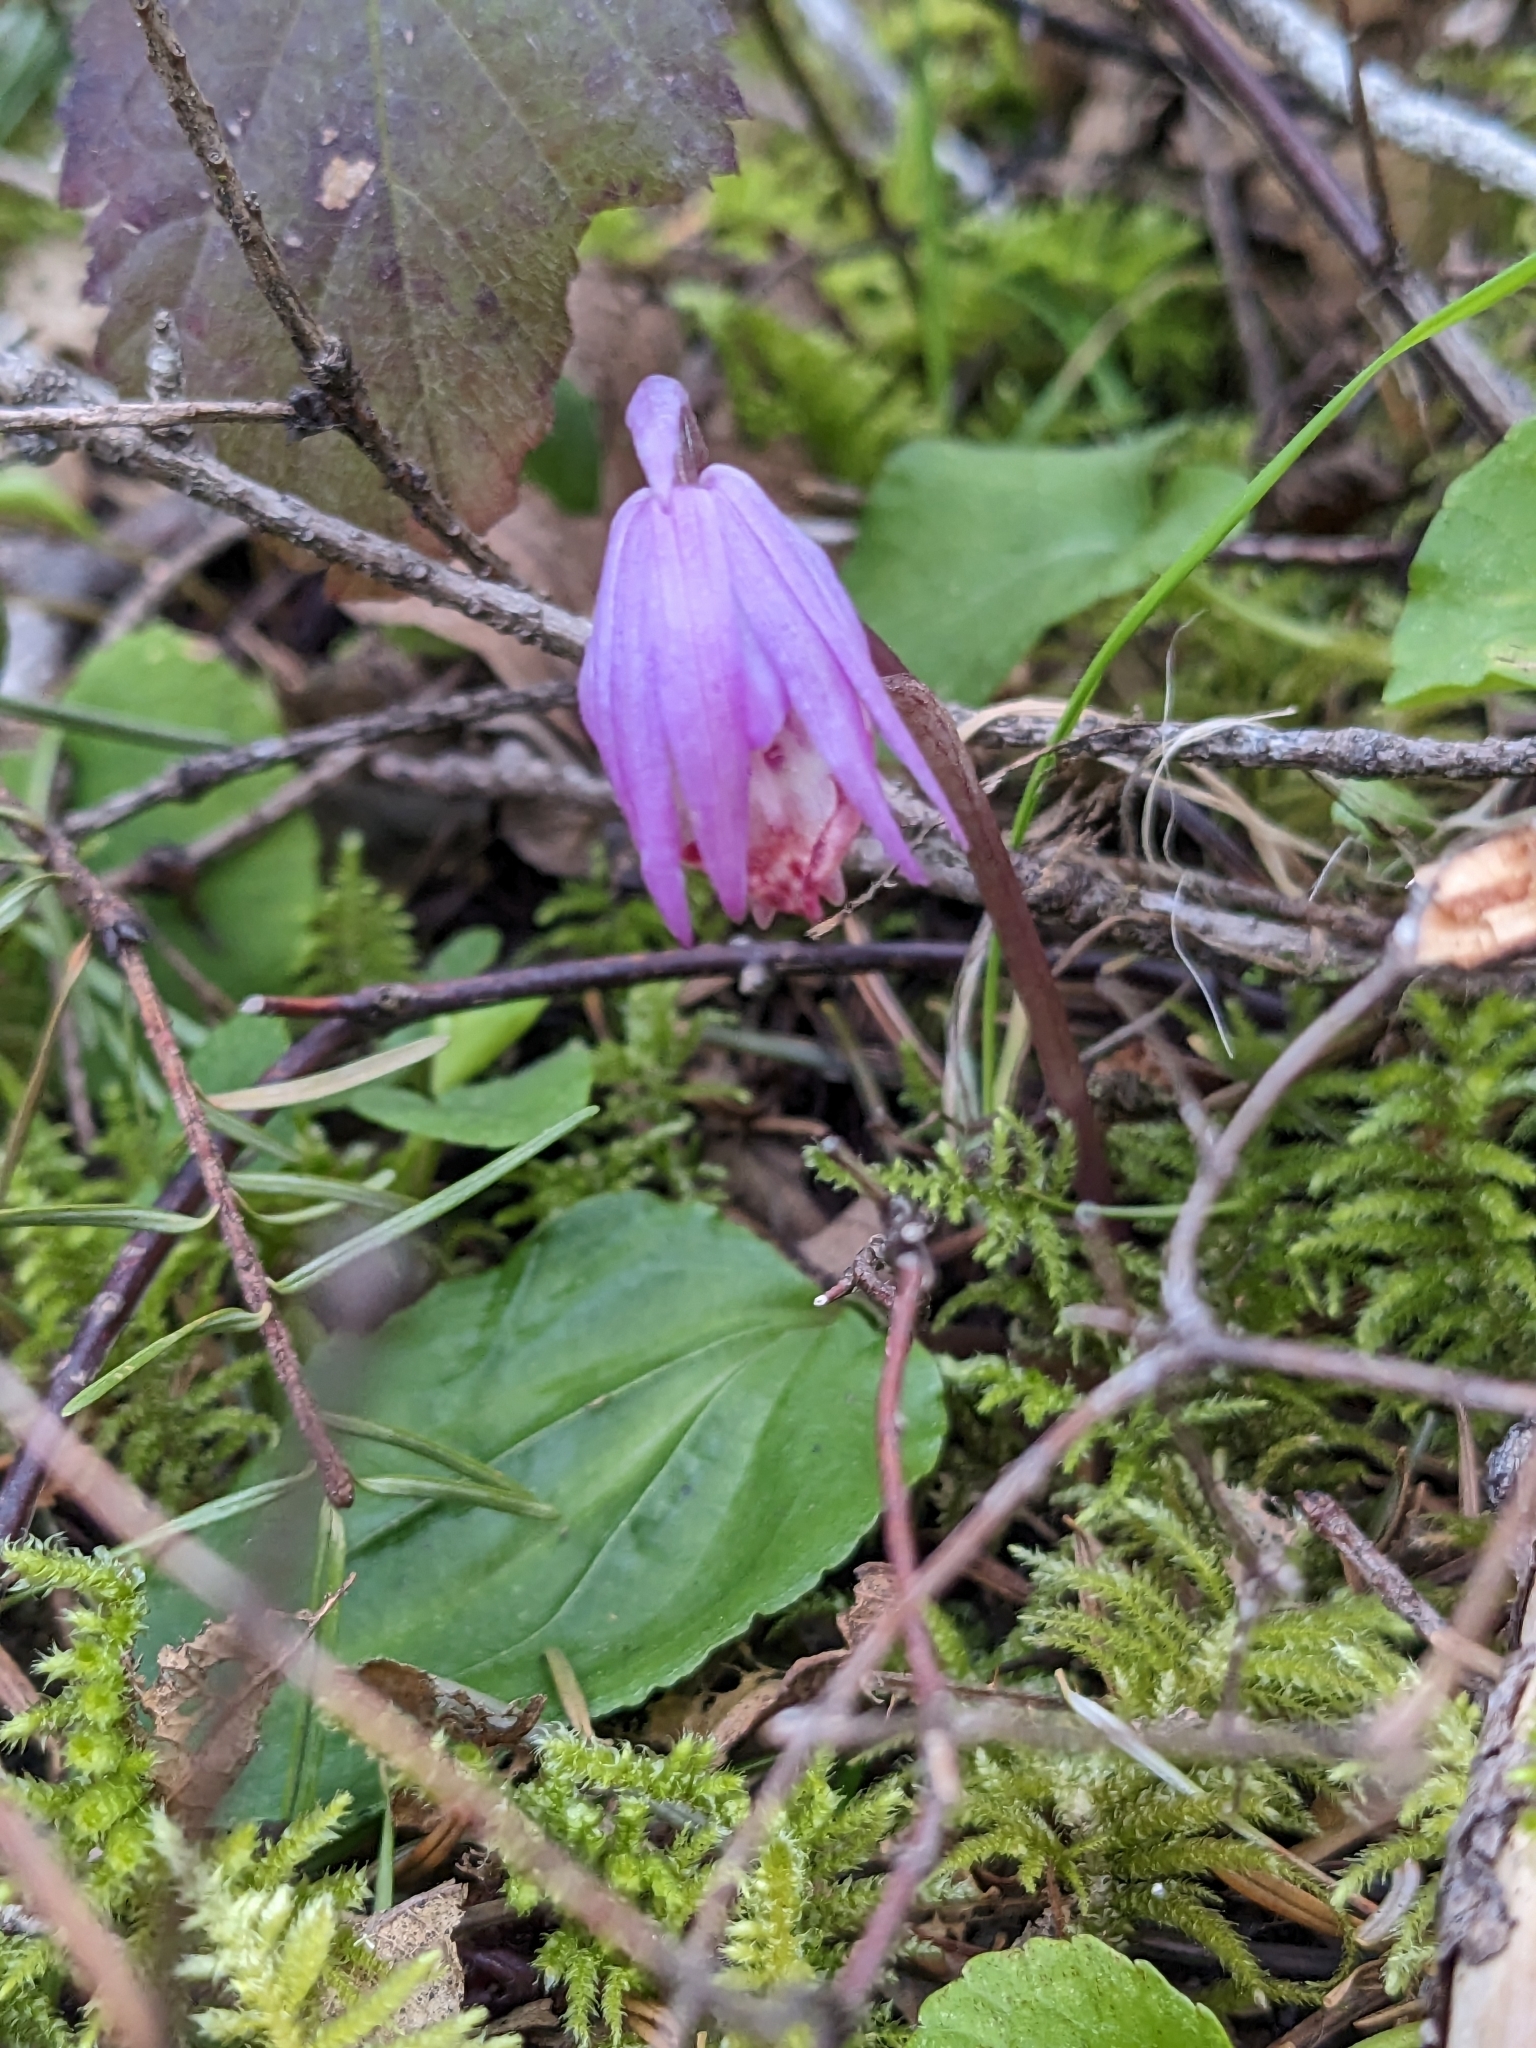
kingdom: Plantae
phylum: Tracheophyta
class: Liliopsida
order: Asparagales
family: Orchidaceae
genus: Calypso
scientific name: Calypso bulbosa
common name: Calypso
